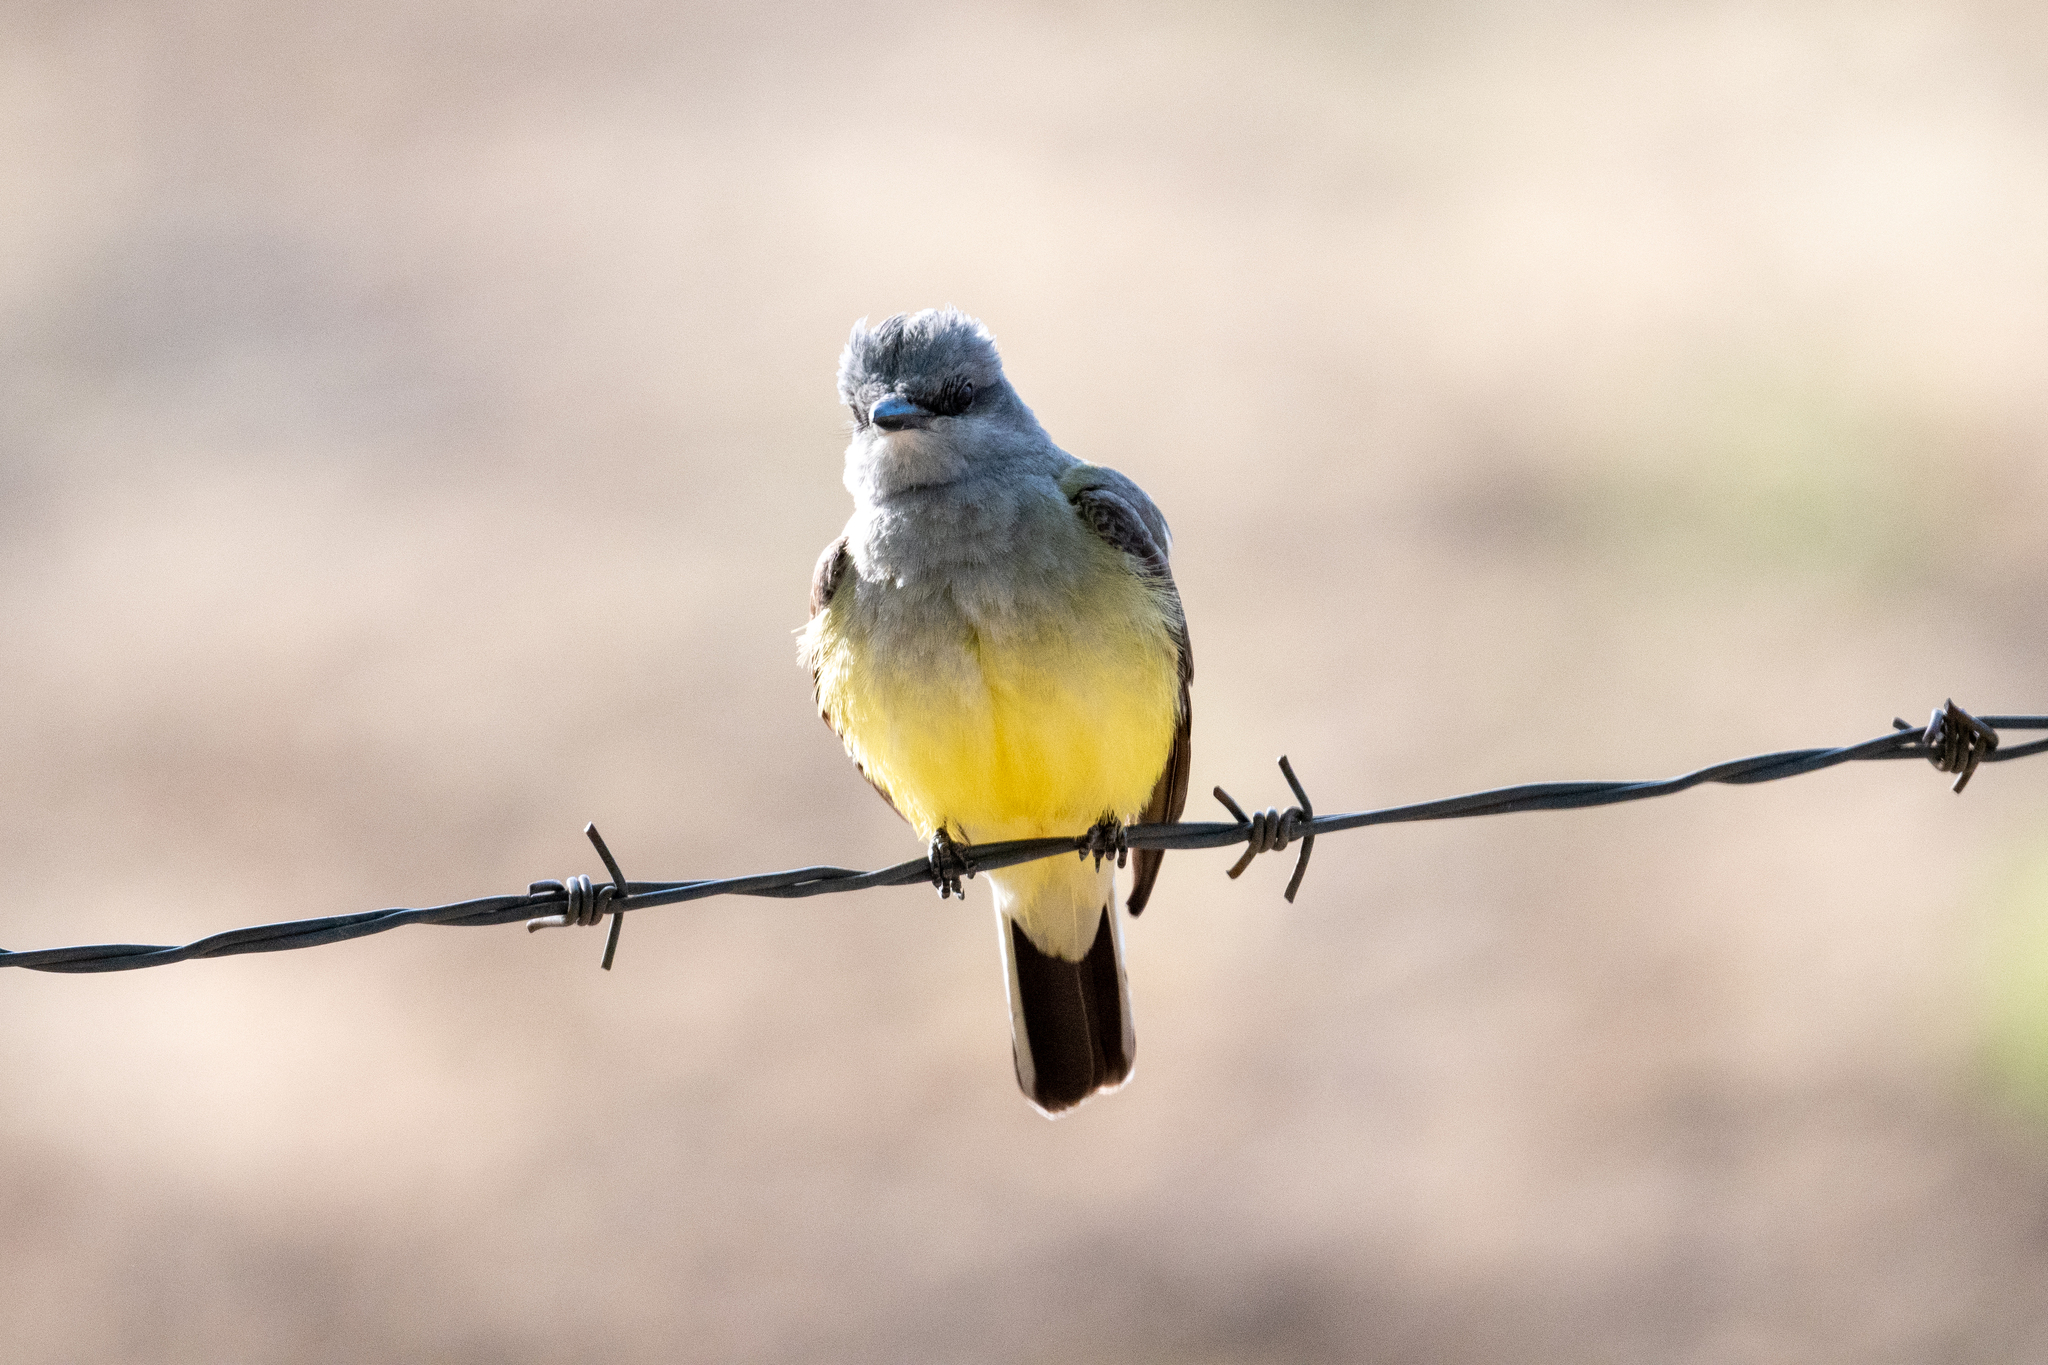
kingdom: Animalia
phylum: Chordata
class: Aves
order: Passeriformes
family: Tyrannidae
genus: Tyrannus
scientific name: Tyrannus verticalis
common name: Western kingbird
